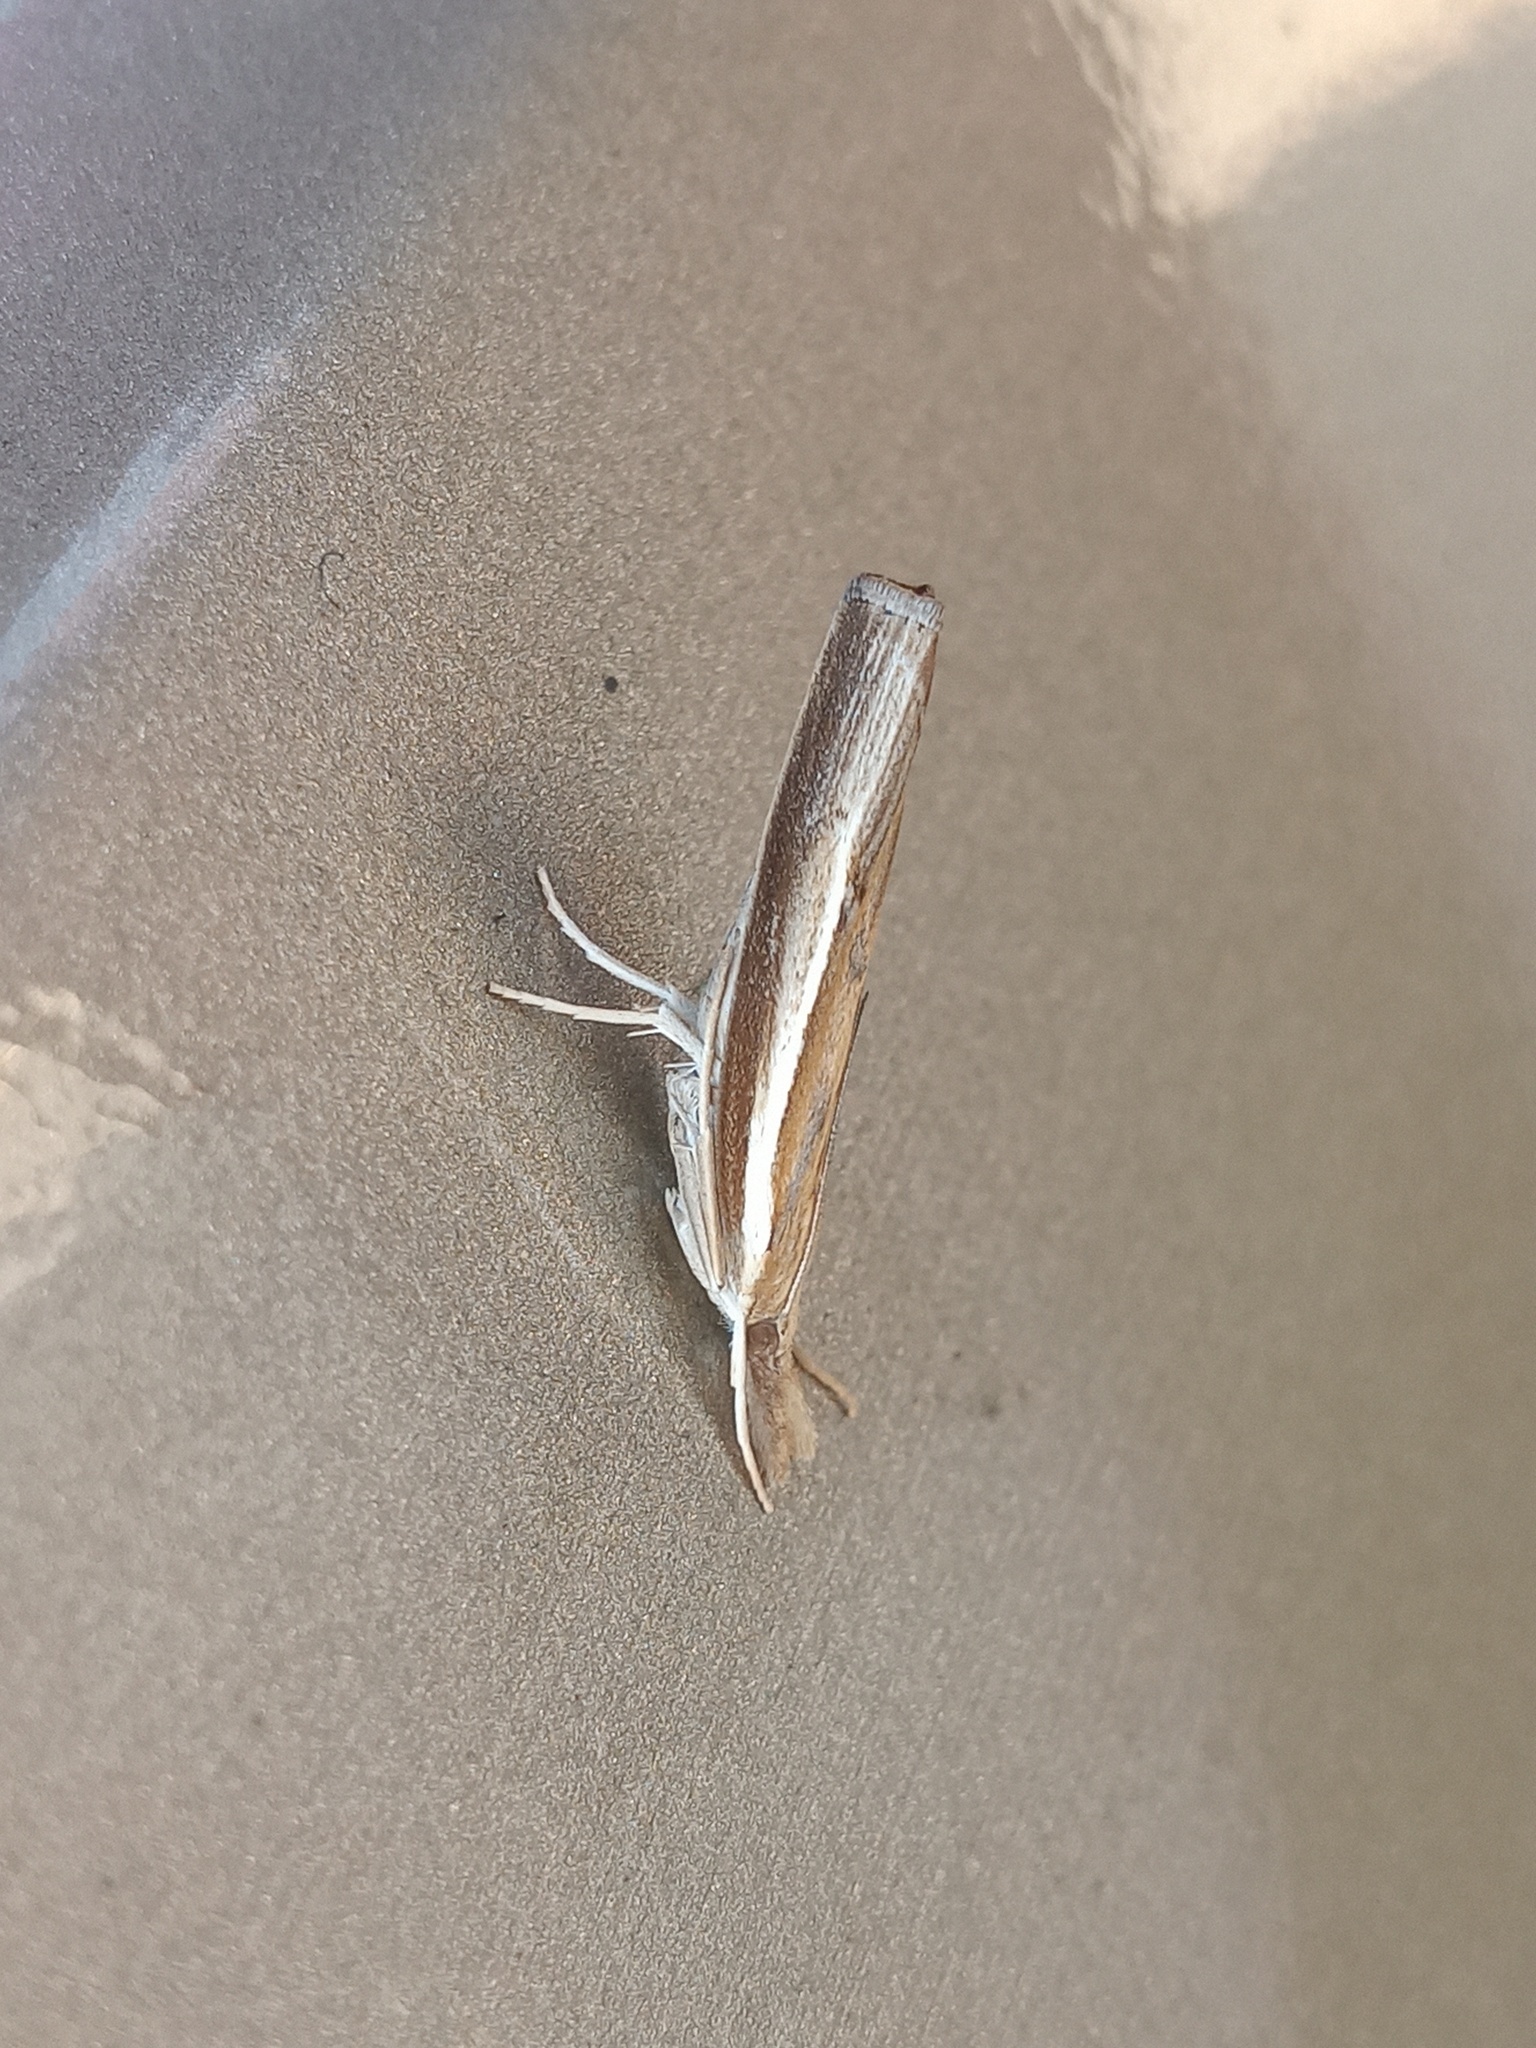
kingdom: Animalia
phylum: Arthropoda
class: Insecta
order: Lepidoptera
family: Crambidae
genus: Fissicrambus
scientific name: Fissicrambus fissiradiellus
